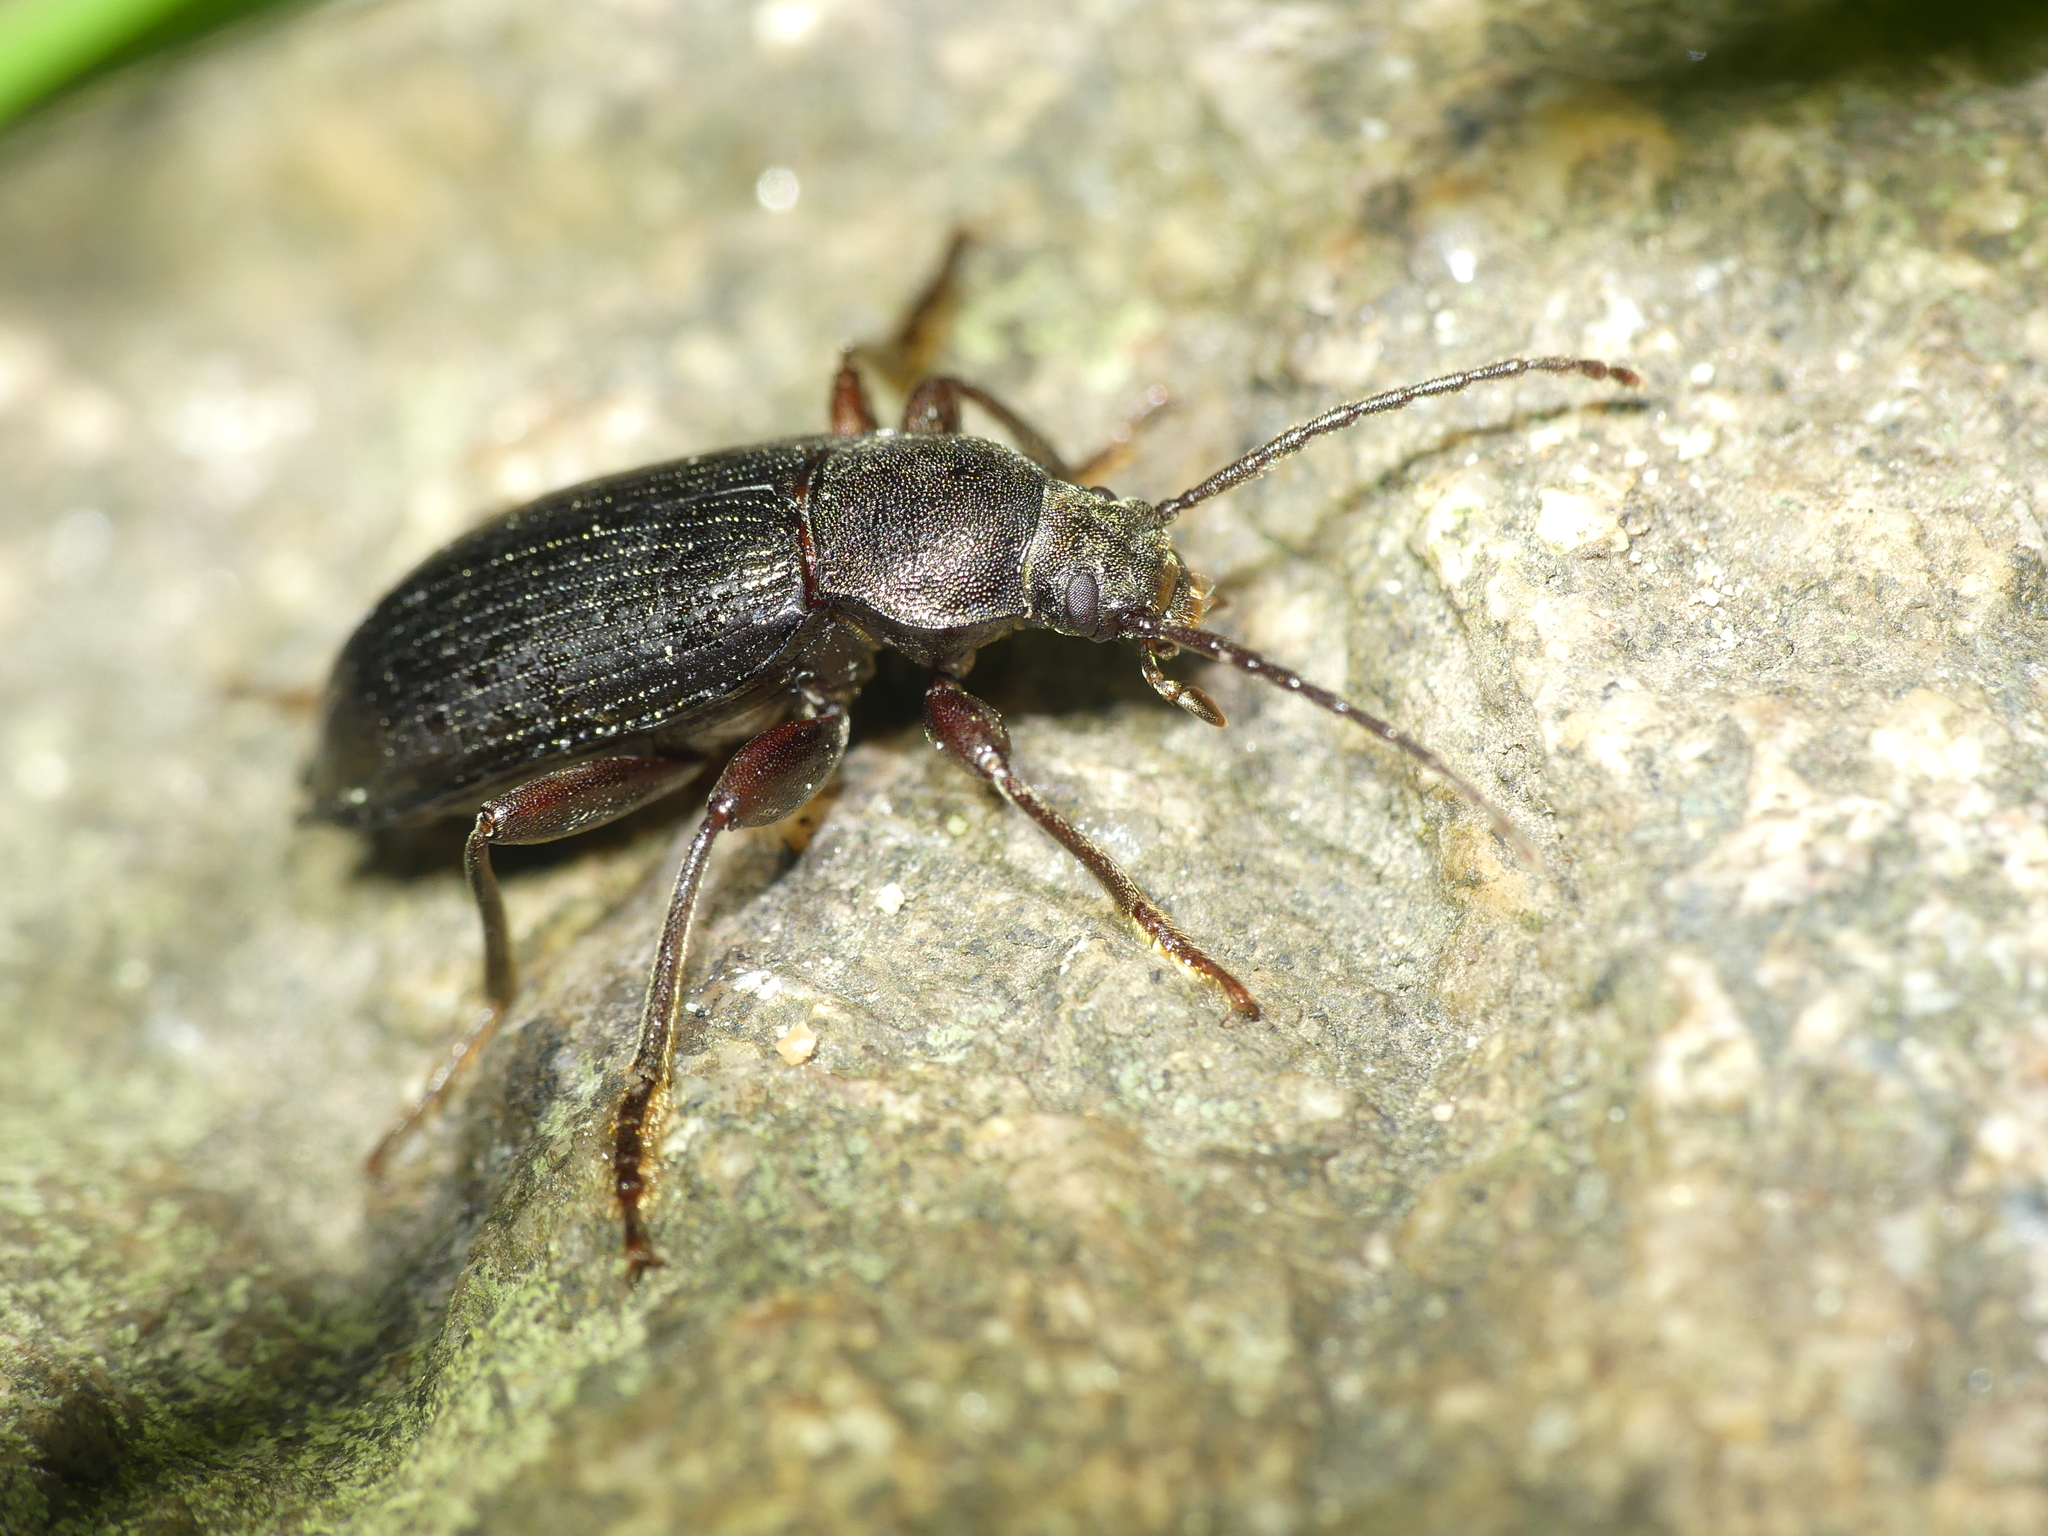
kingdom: Animalia
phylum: Arthropoda
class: Insecta
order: Coleoptera
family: Tenebrionidae
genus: Stenomax
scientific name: Stenomax aeneus
